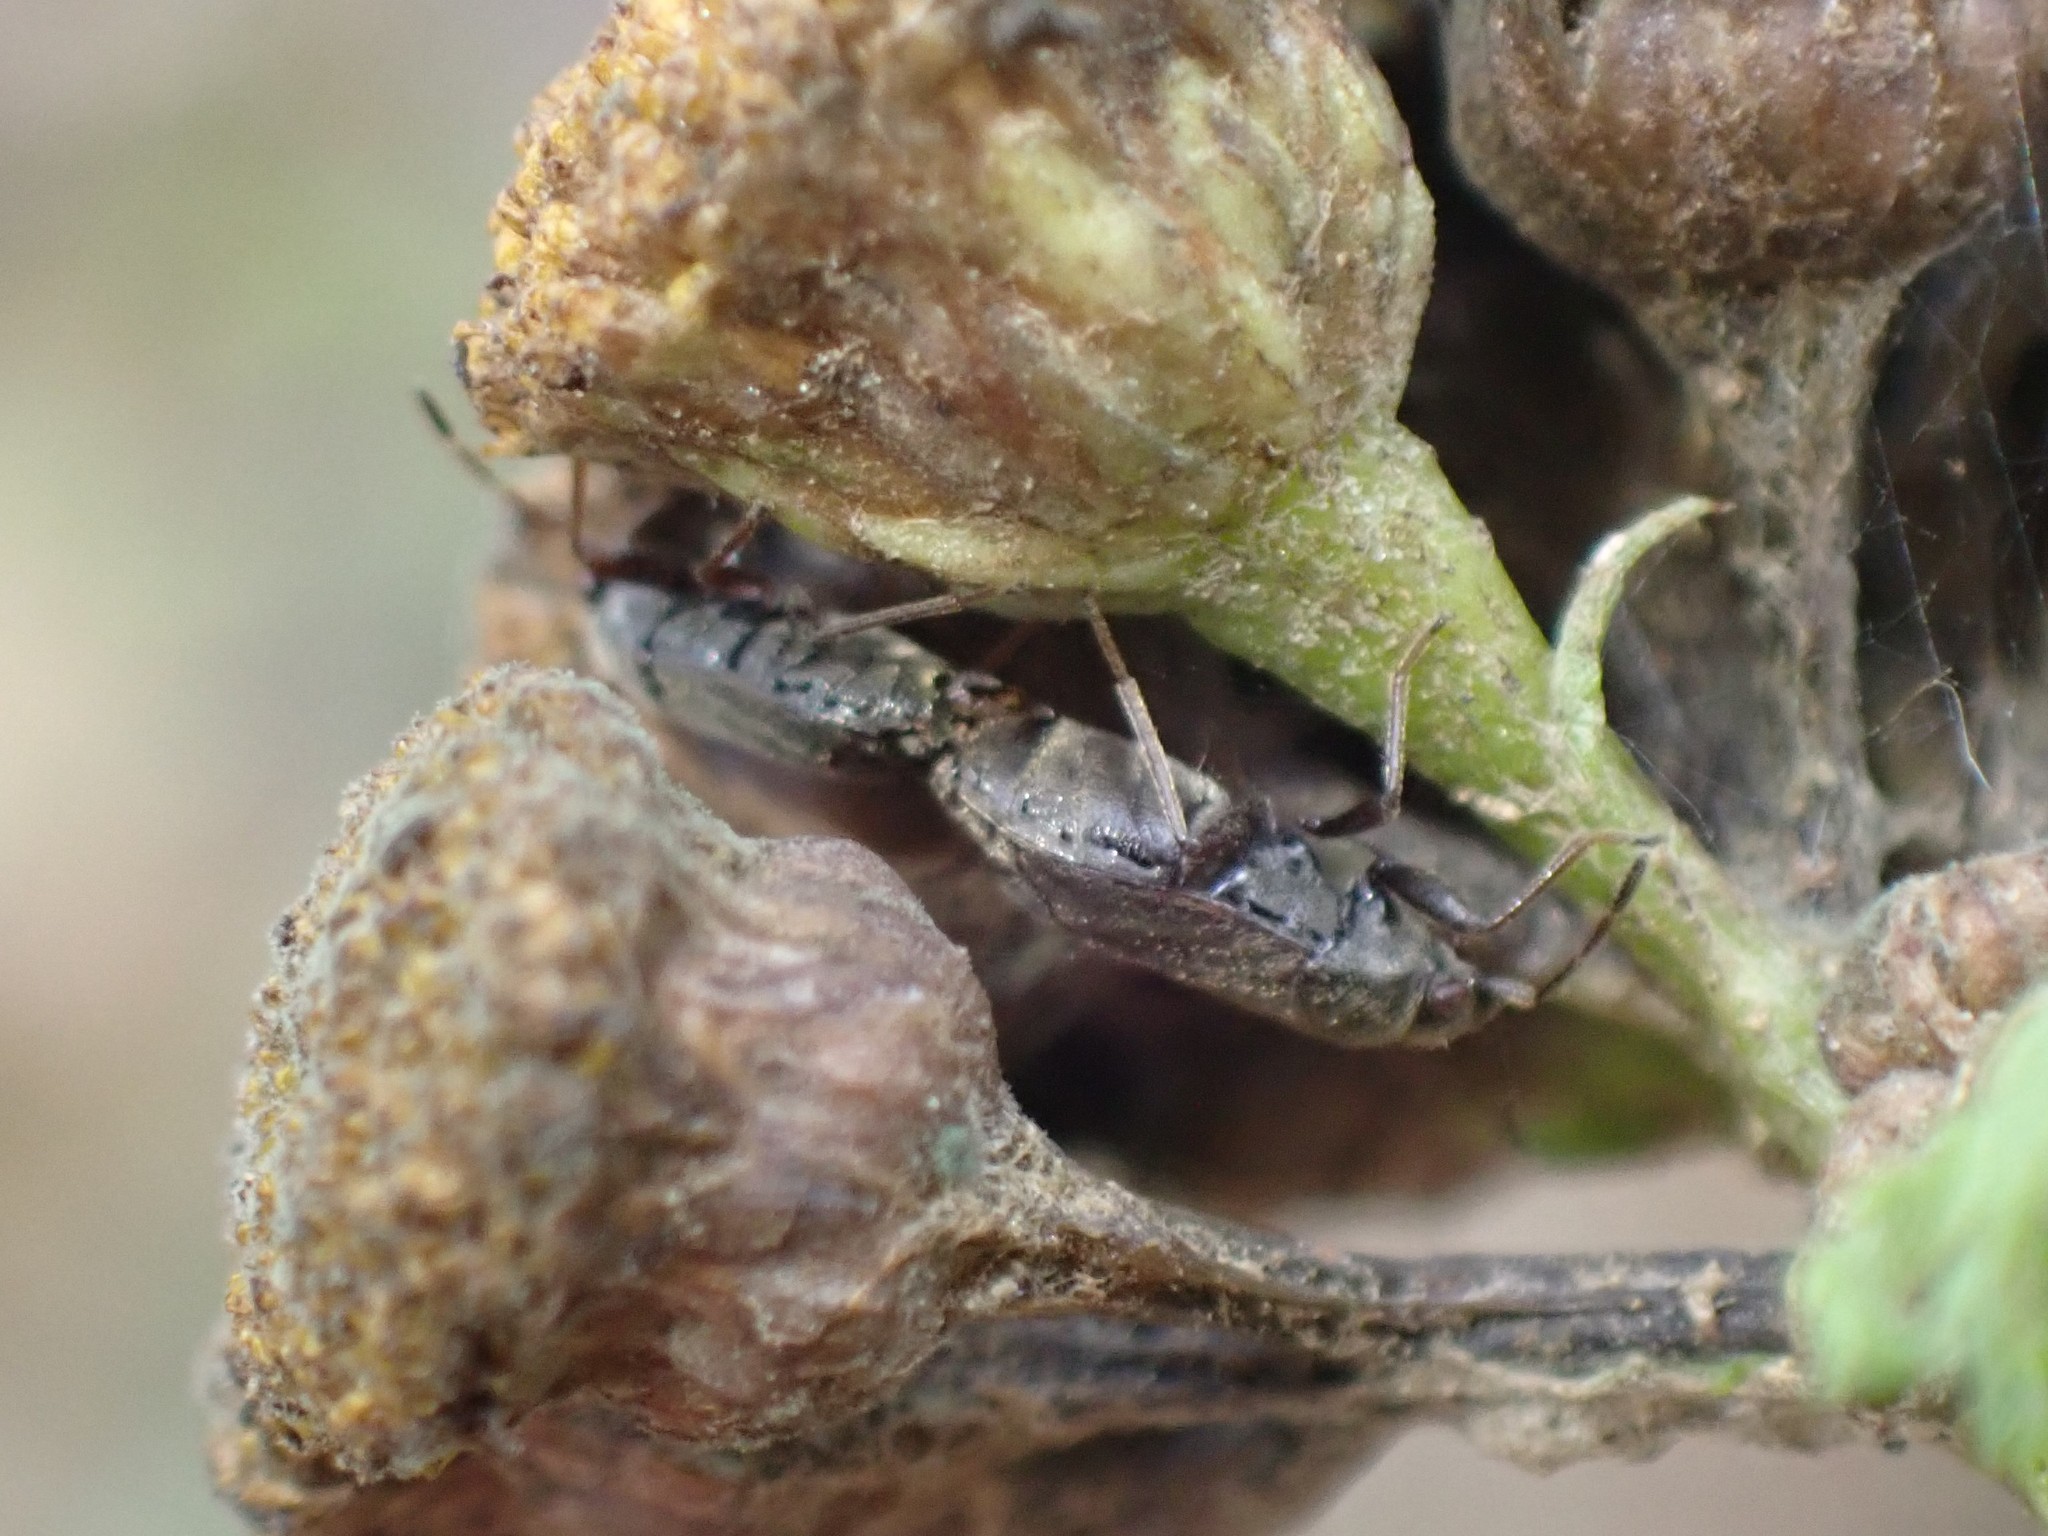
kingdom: Animalia
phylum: Arthropoda
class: Insecta
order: Hemiptera
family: Rhyparochromidae
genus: Stygnocoris
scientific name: Stygnocoris rusticus
